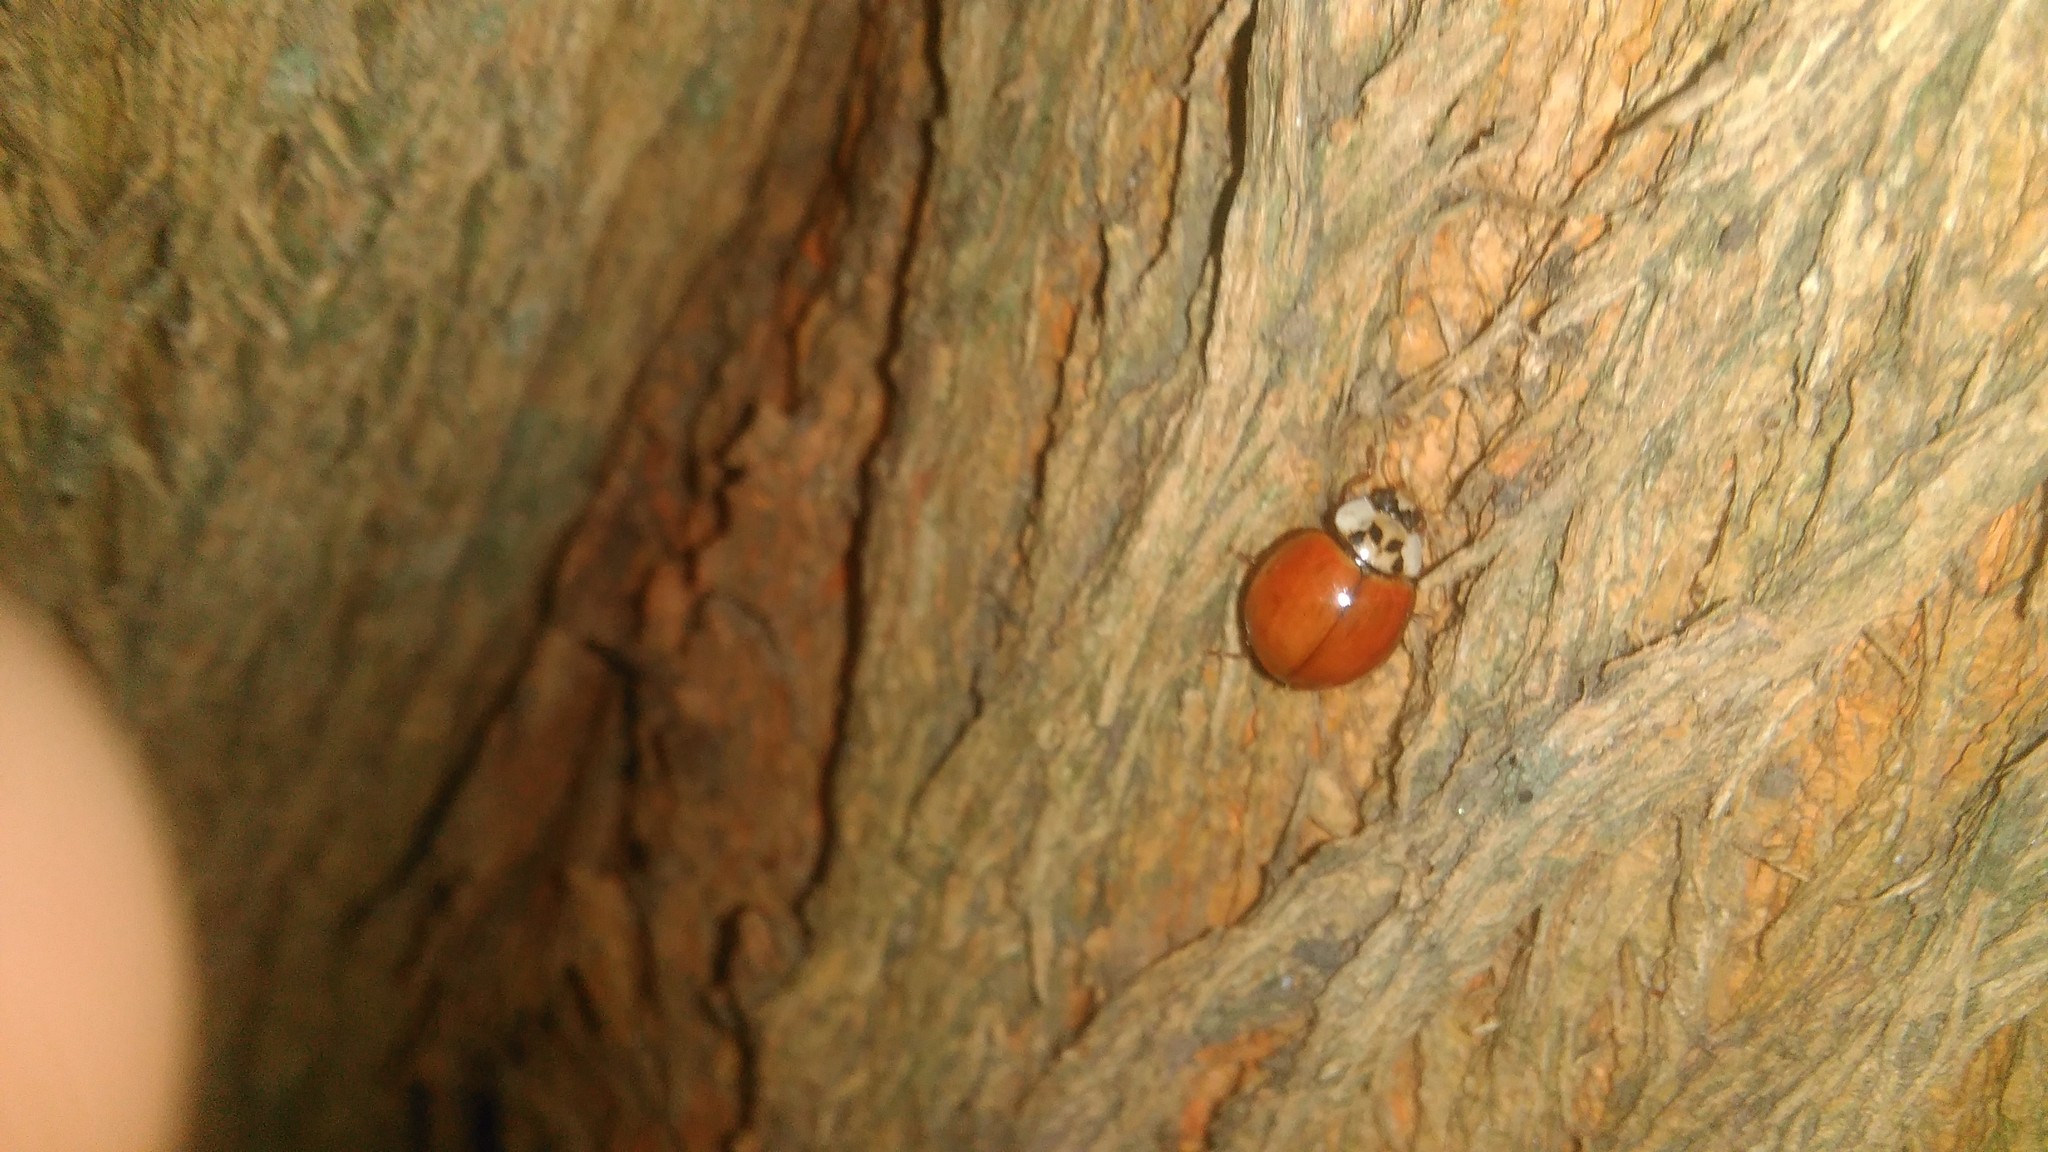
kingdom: Animalia
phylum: Arthropoda
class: Insecta
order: Coleoptera
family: Coccinellidae
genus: Harmonia
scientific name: Harmonia axyridis
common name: Harlequin ladybird
